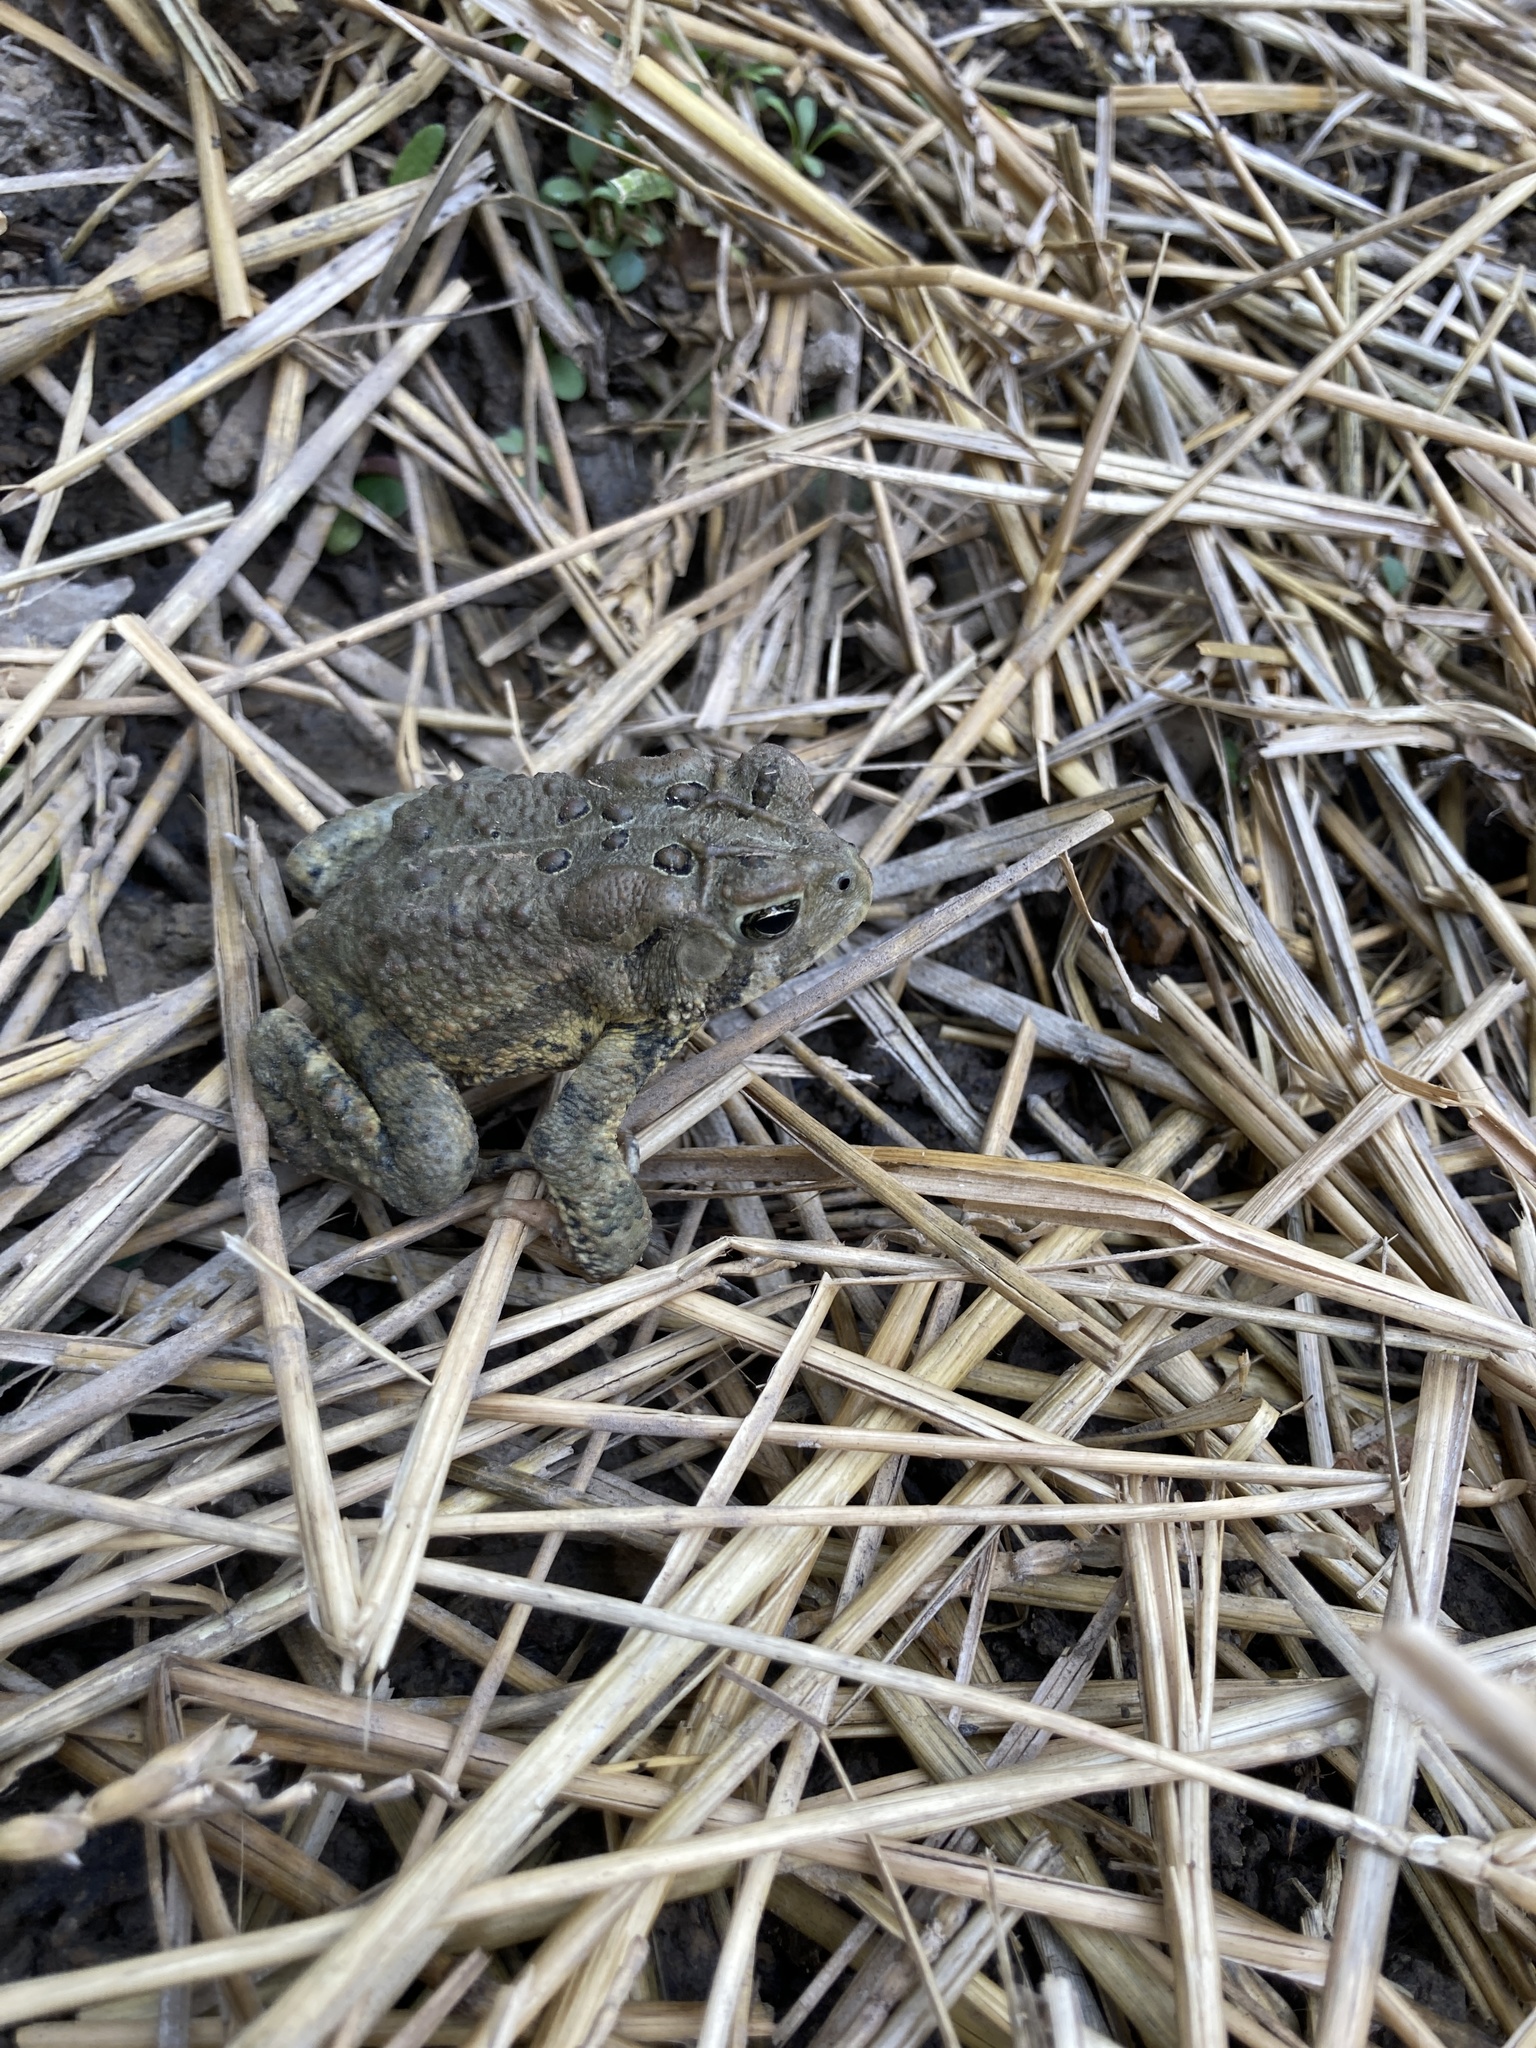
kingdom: Animalia
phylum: Chordata
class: Amphibia
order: Anura
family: Bufonidae
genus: Anaxyrus
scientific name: Anaxyrus americanus
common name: American toad
